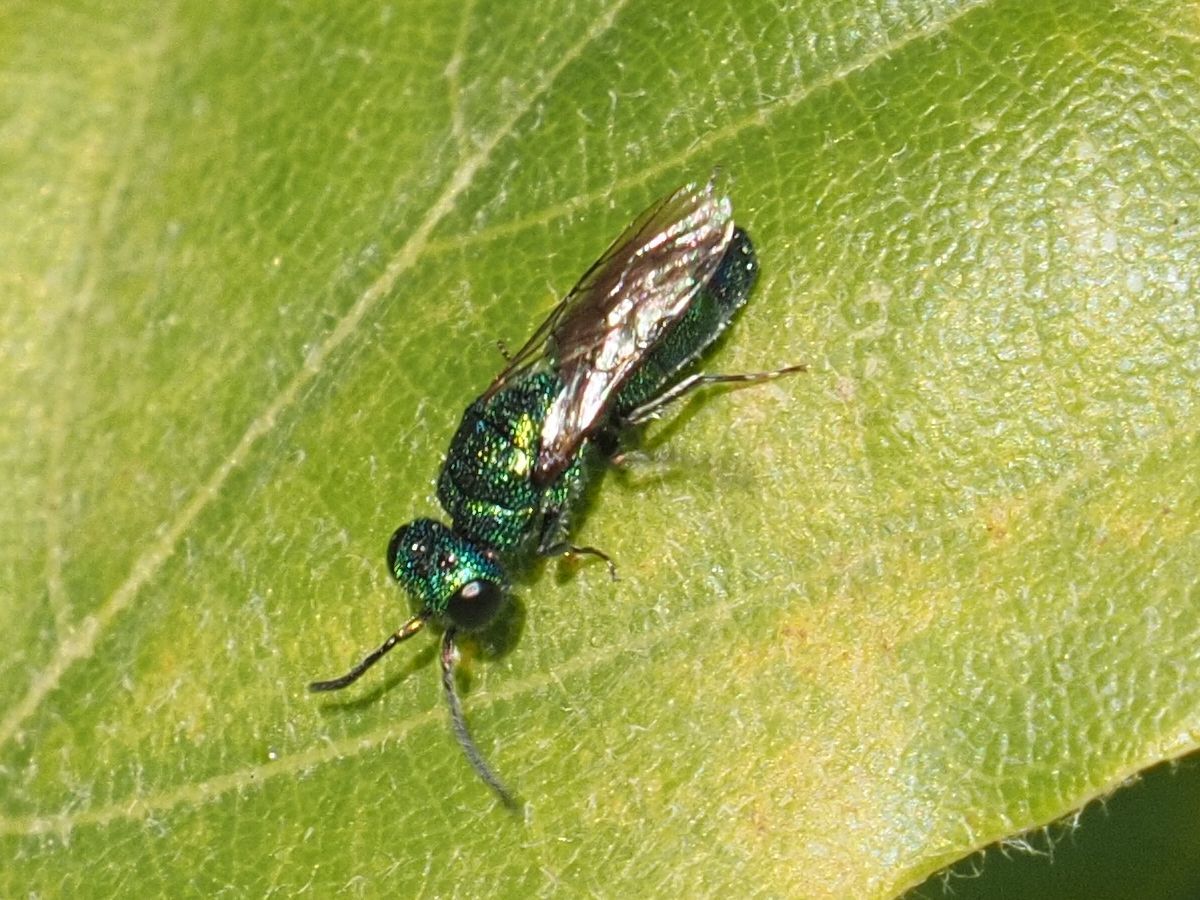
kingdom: Animalia
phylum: Arthropoda
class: Insecta
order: Hymenoptera
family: Pompilidae
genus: Pepsis
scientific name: Pepsis cyanea
